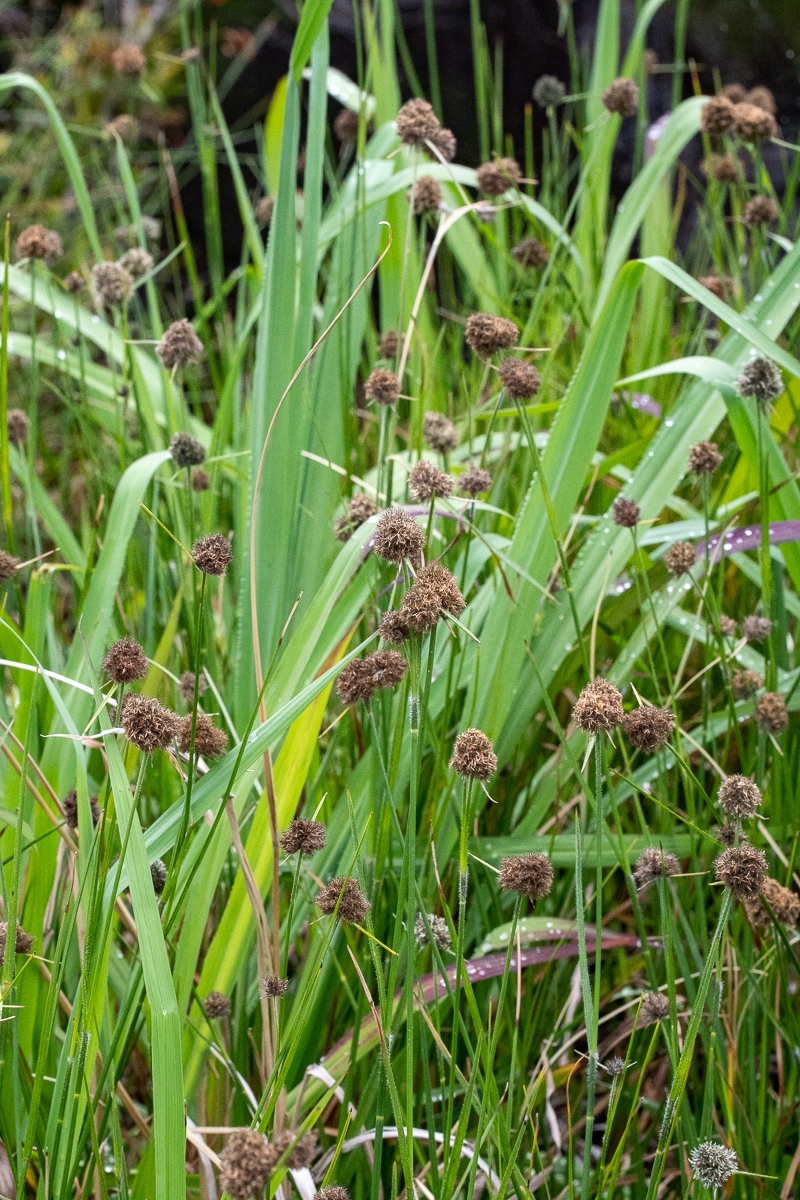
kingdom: Plantae
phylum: Tracheophyta
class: Liliopsida
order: Poales
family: Cyperaceae
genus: Fuirena
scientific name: Fuirena hirsuta
